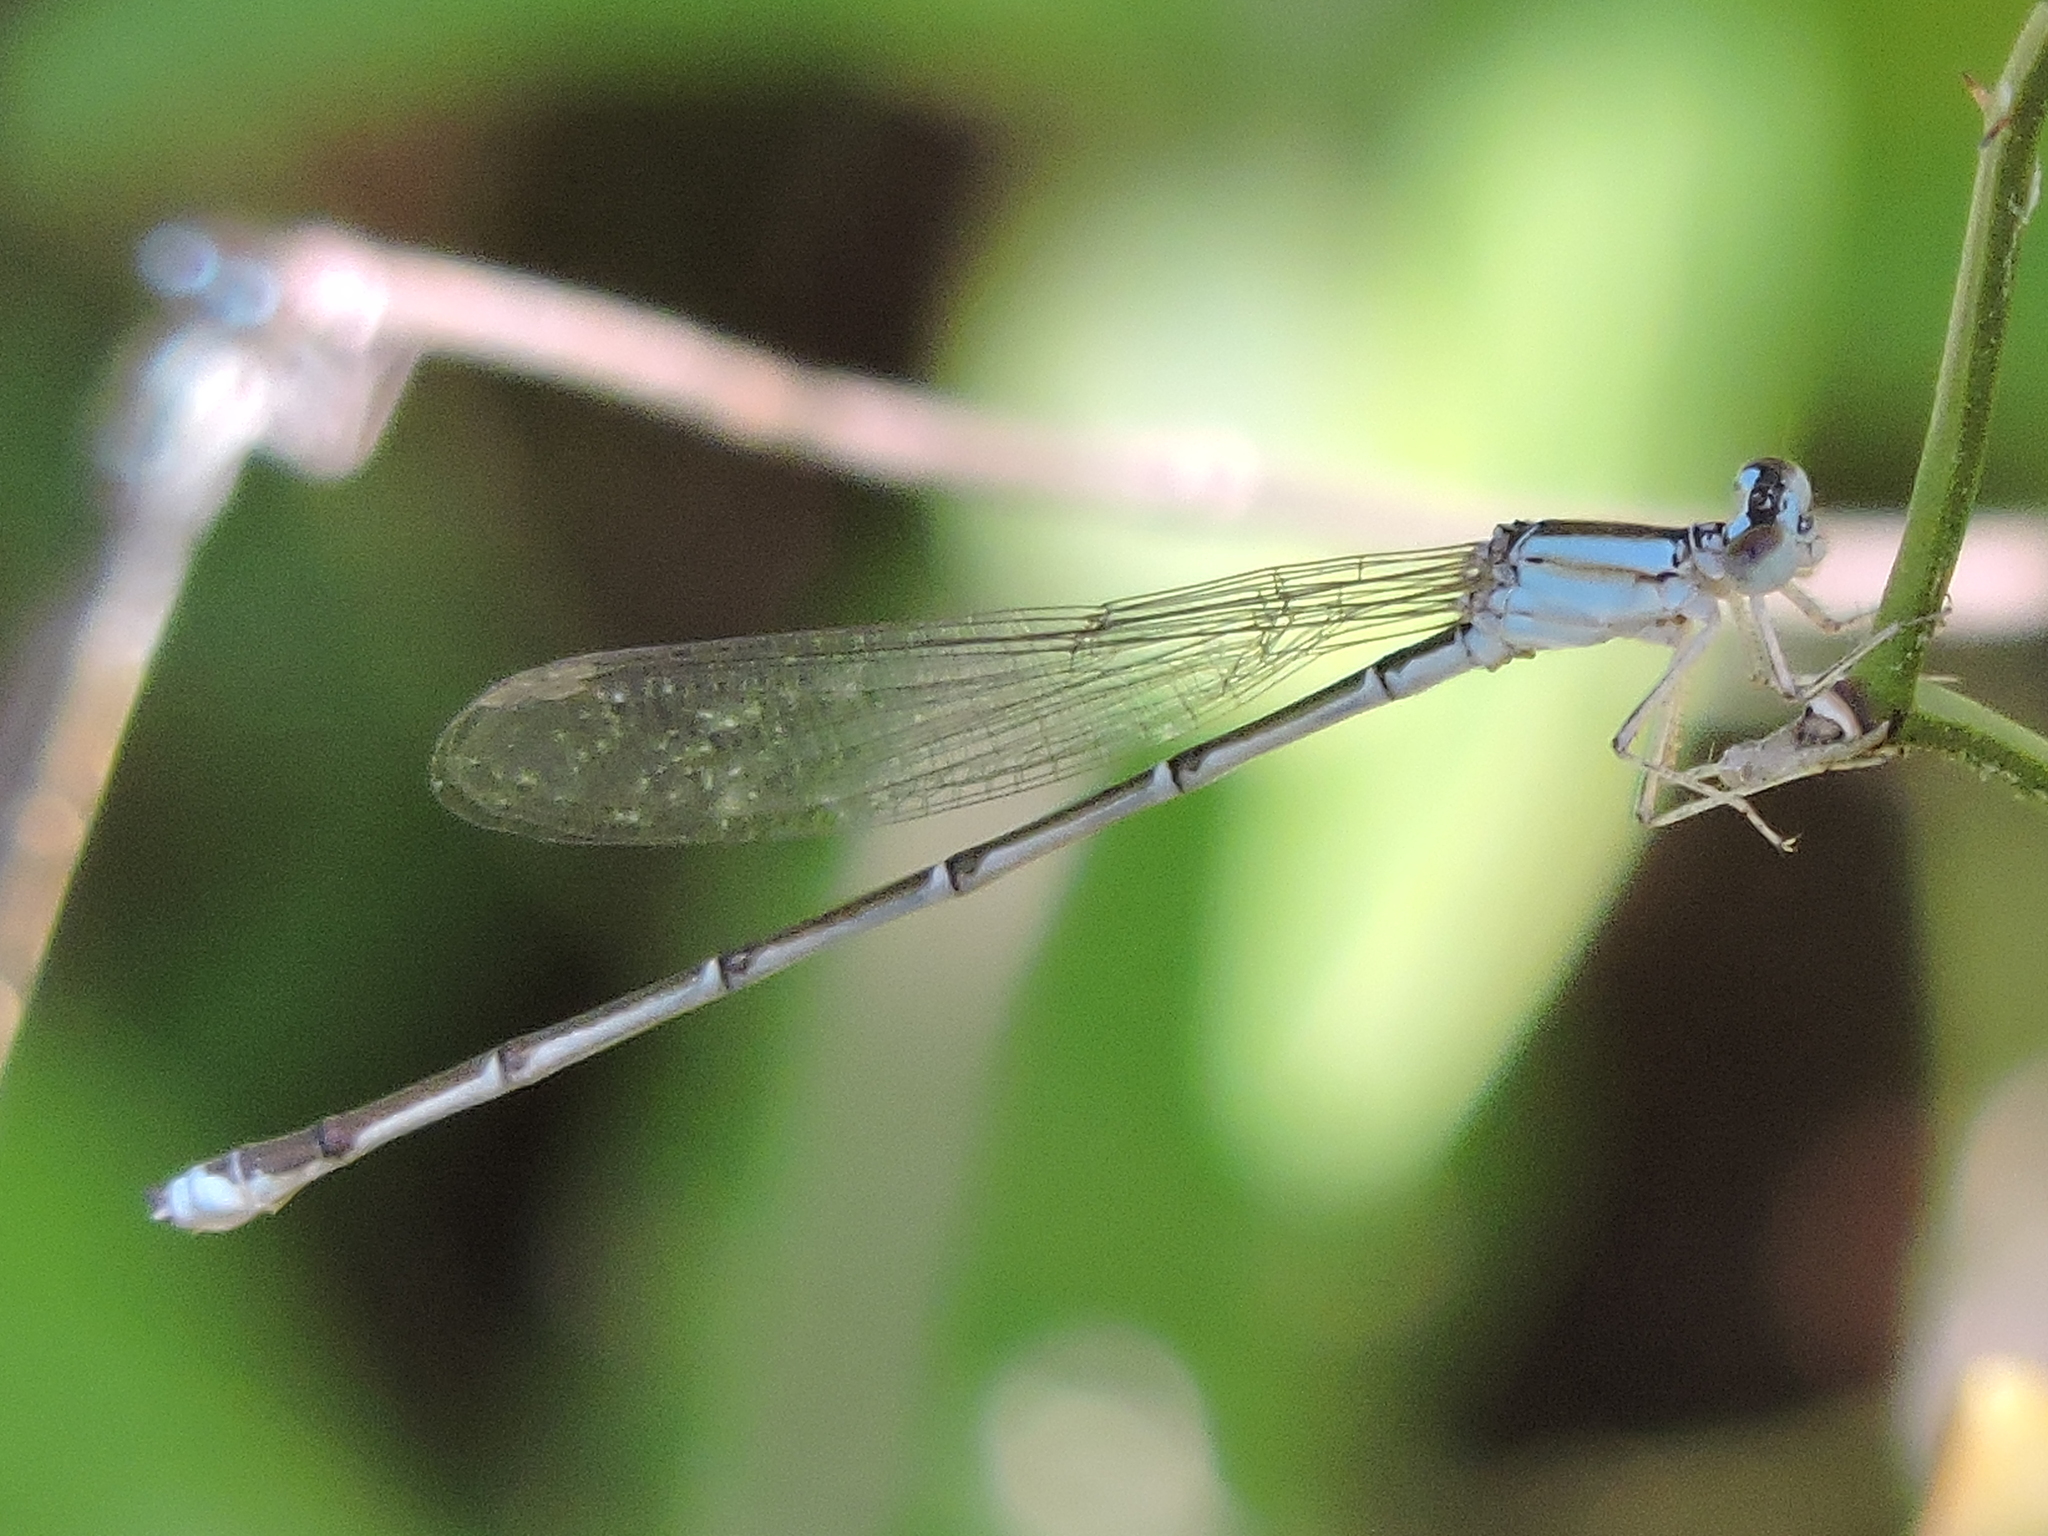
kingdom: Animalia
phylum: Arthropoda
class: Insecta
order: Odonata
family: Coenagrionidae
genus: Enallagma
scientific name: Enallagma vesperum
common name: Vesper bluet
